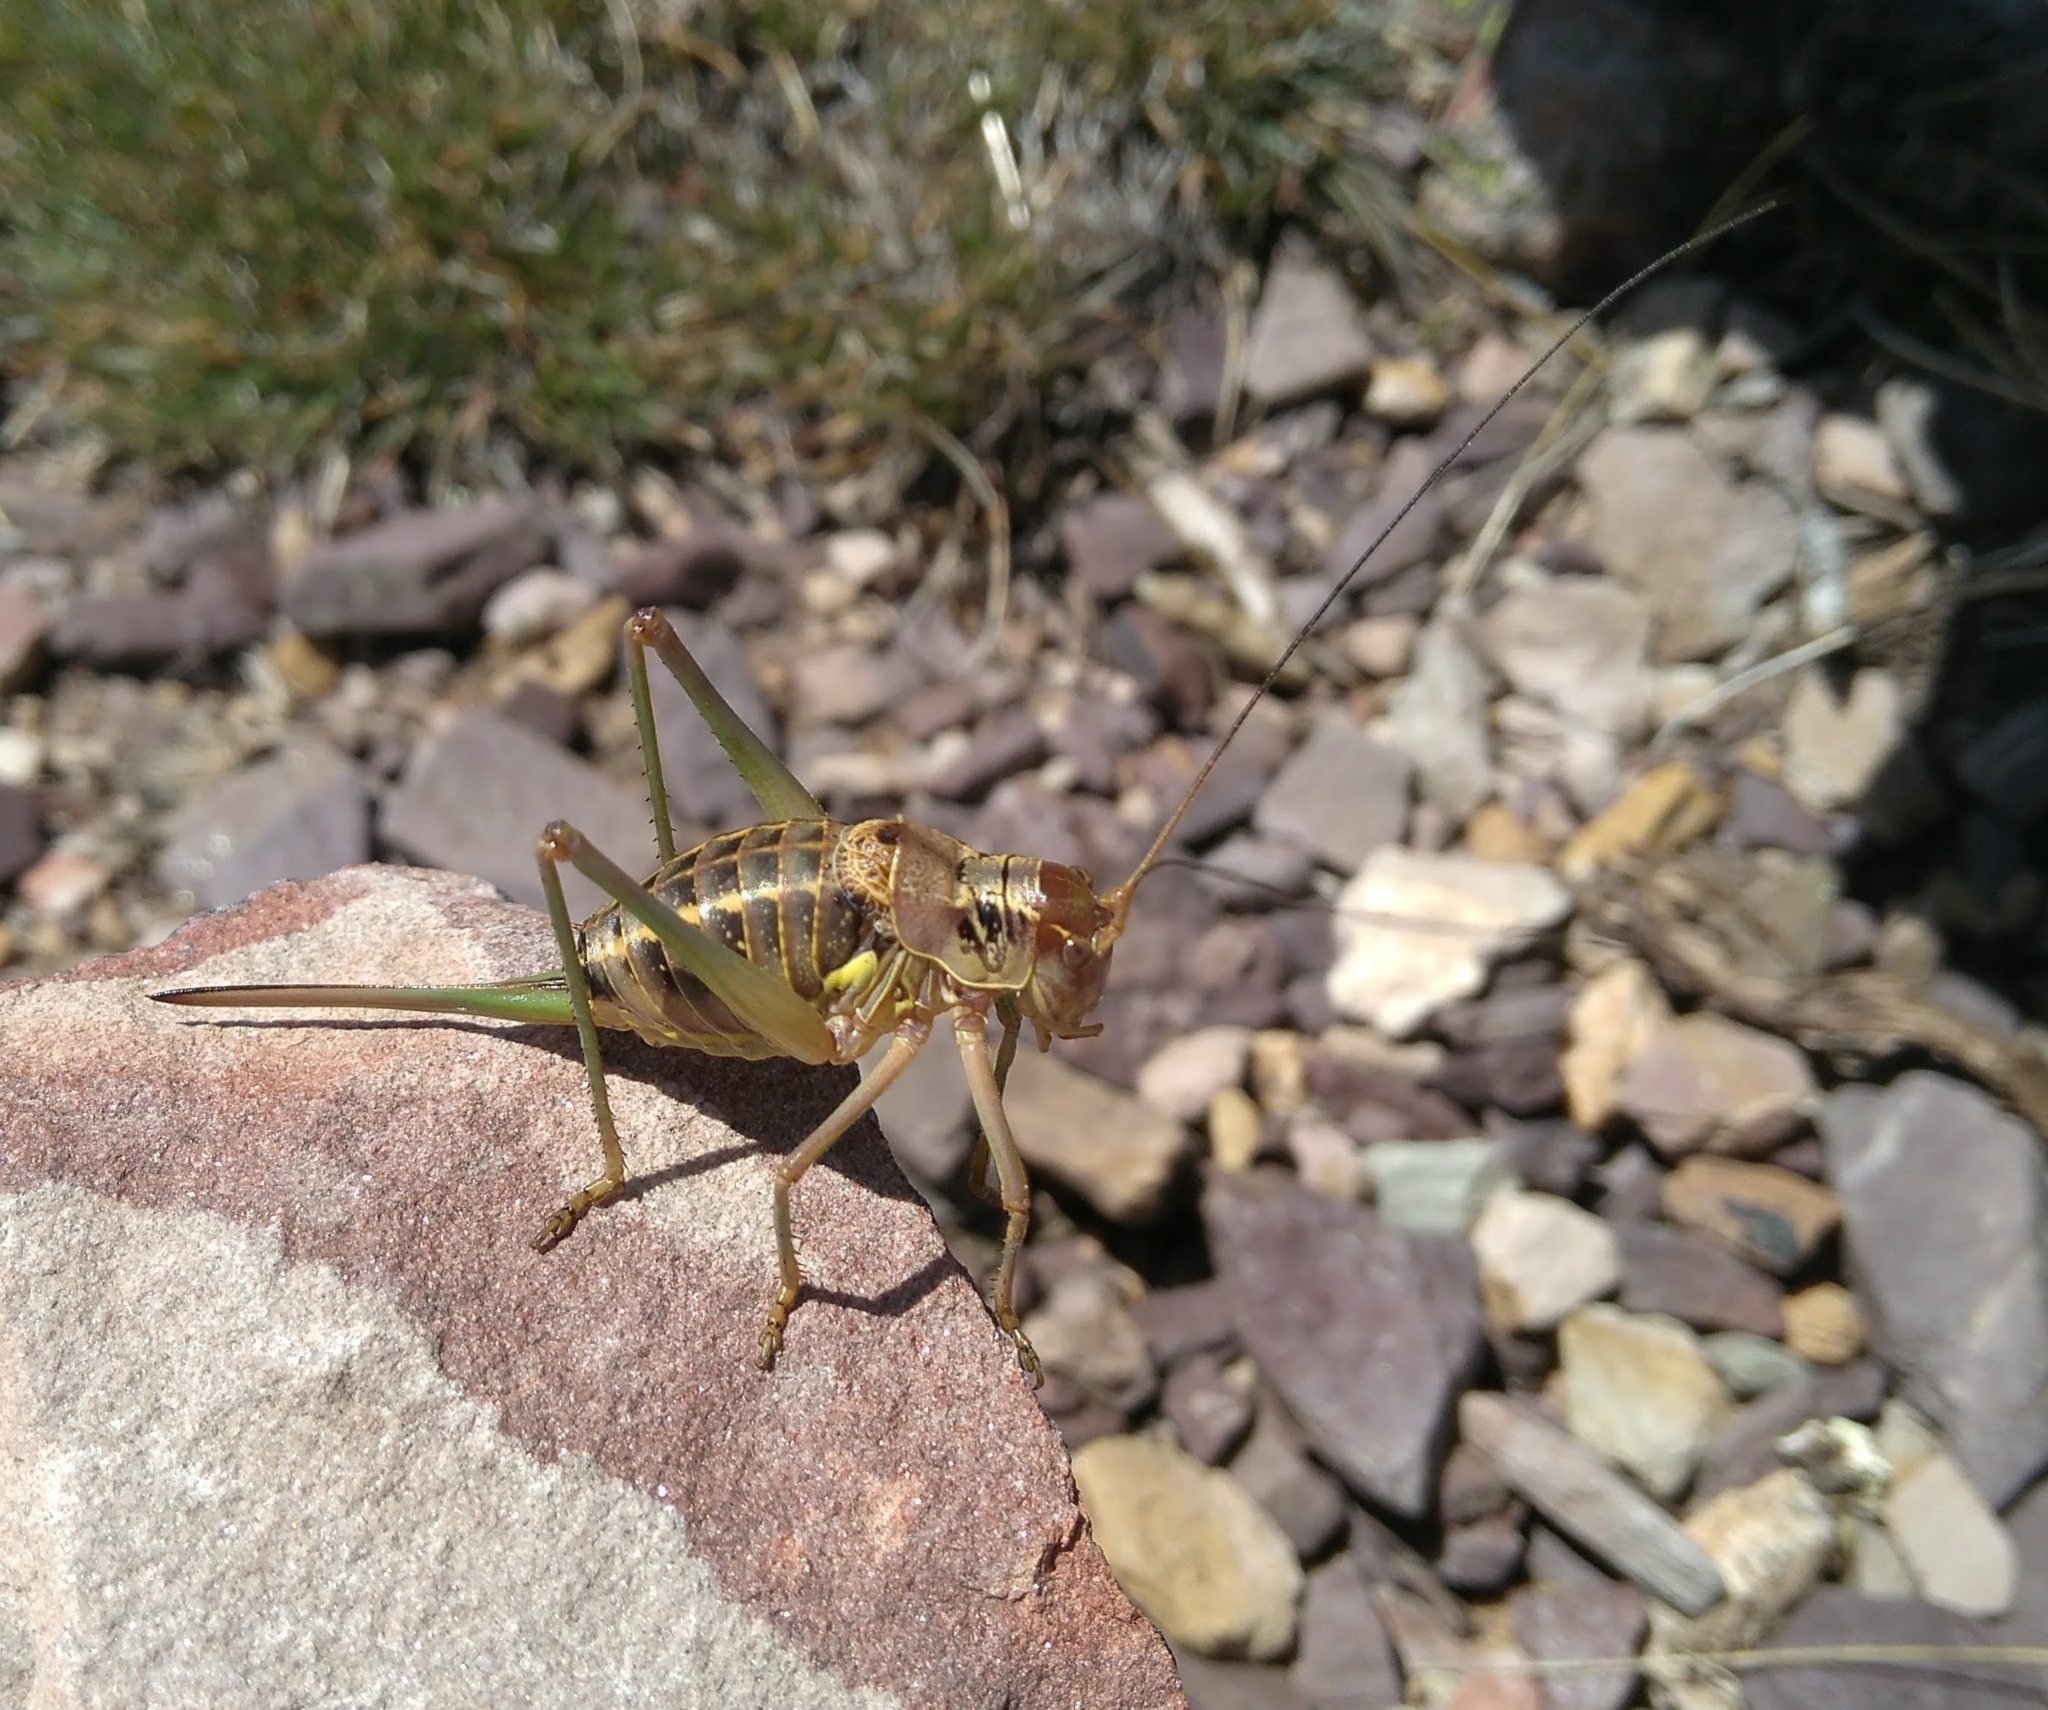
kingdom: Animalia
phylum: Arthropoda
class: Insecta
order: Orthoptera
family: Tettigoniidae
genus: Ephippigerida
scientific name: Ephippigerida areolaria
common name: Spanish saddle bush-cricket
